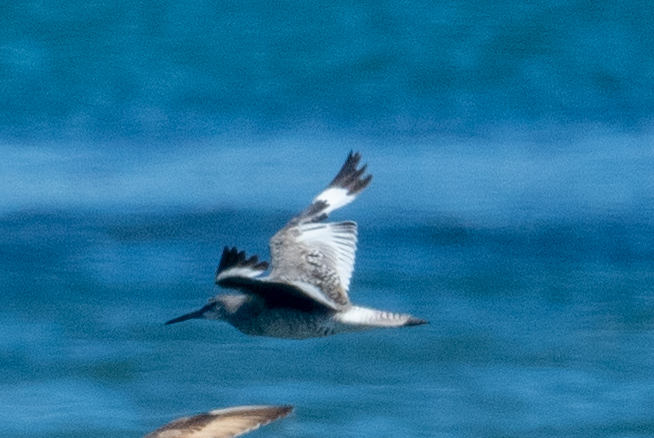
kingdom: Animalia
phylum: Chordata
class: Aves
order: Charadriiformes
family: Scolopacidae
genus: Tringa
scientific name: Tringa semipalmata
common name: Willet
